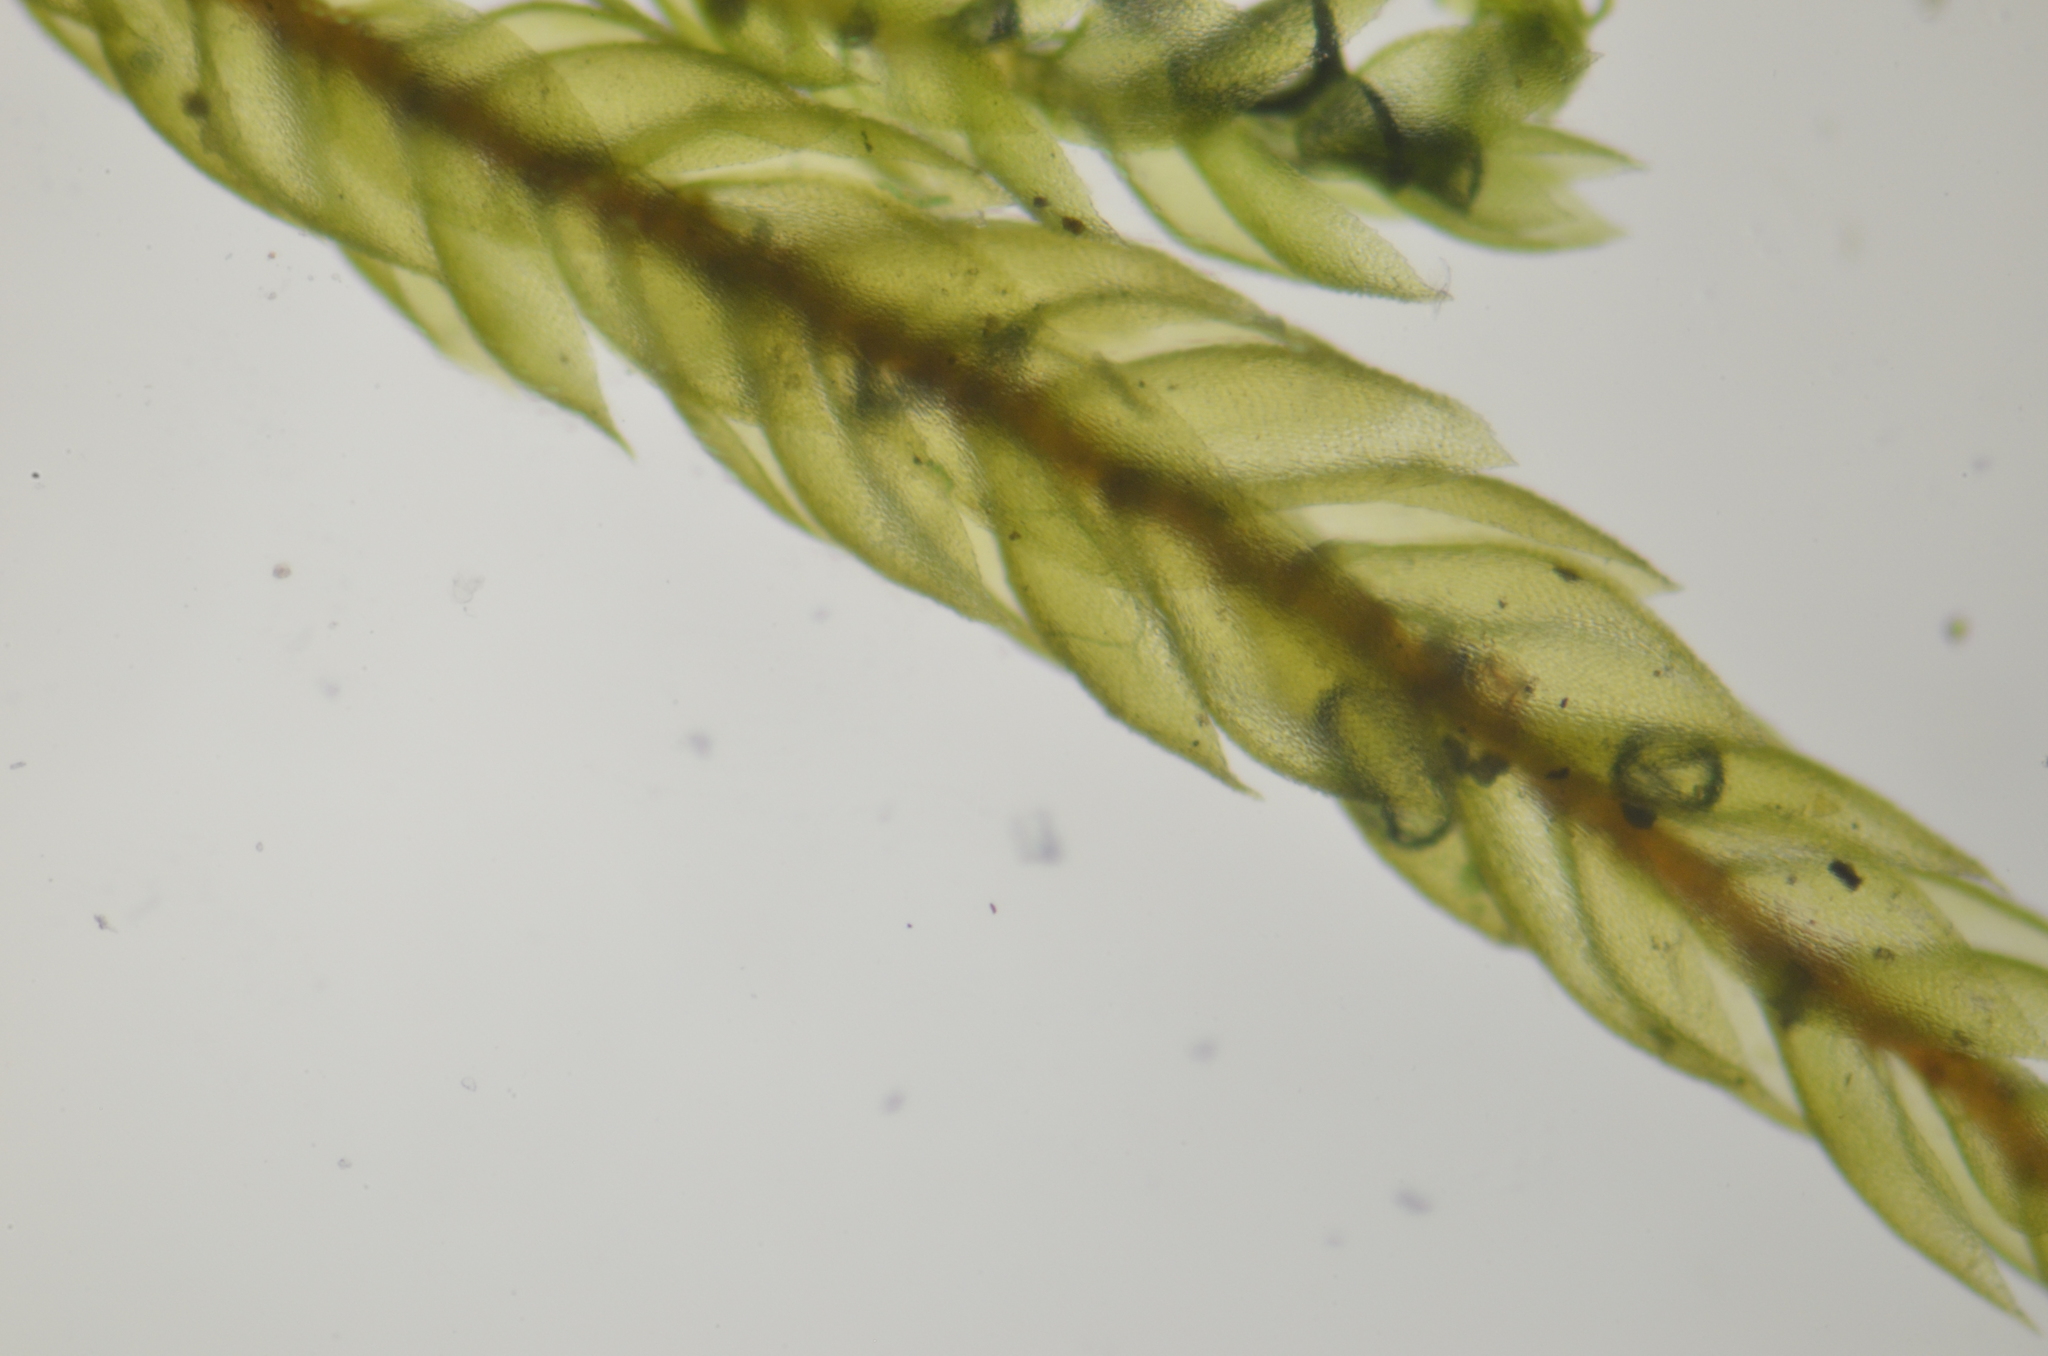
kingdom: Plantae
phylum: Bryophyta
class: Bryopsida
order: Hypnales
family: Pterigynandraceae
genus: Pterigynandrum
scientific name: Pterigynandrum filiforme
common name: Capillary wing moss
